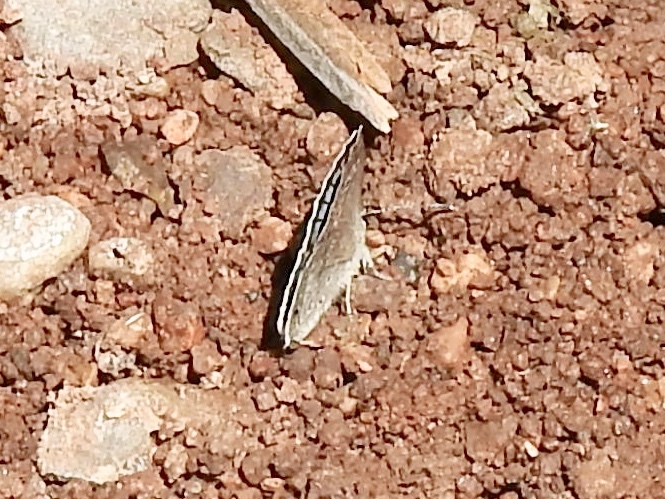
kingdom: Animalia
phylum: Arthropoda
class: Insecta
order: Lepidoptera
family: Lycaenidae
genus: Echinargus
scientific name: Echinargus isola
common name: Reakirt's blue
